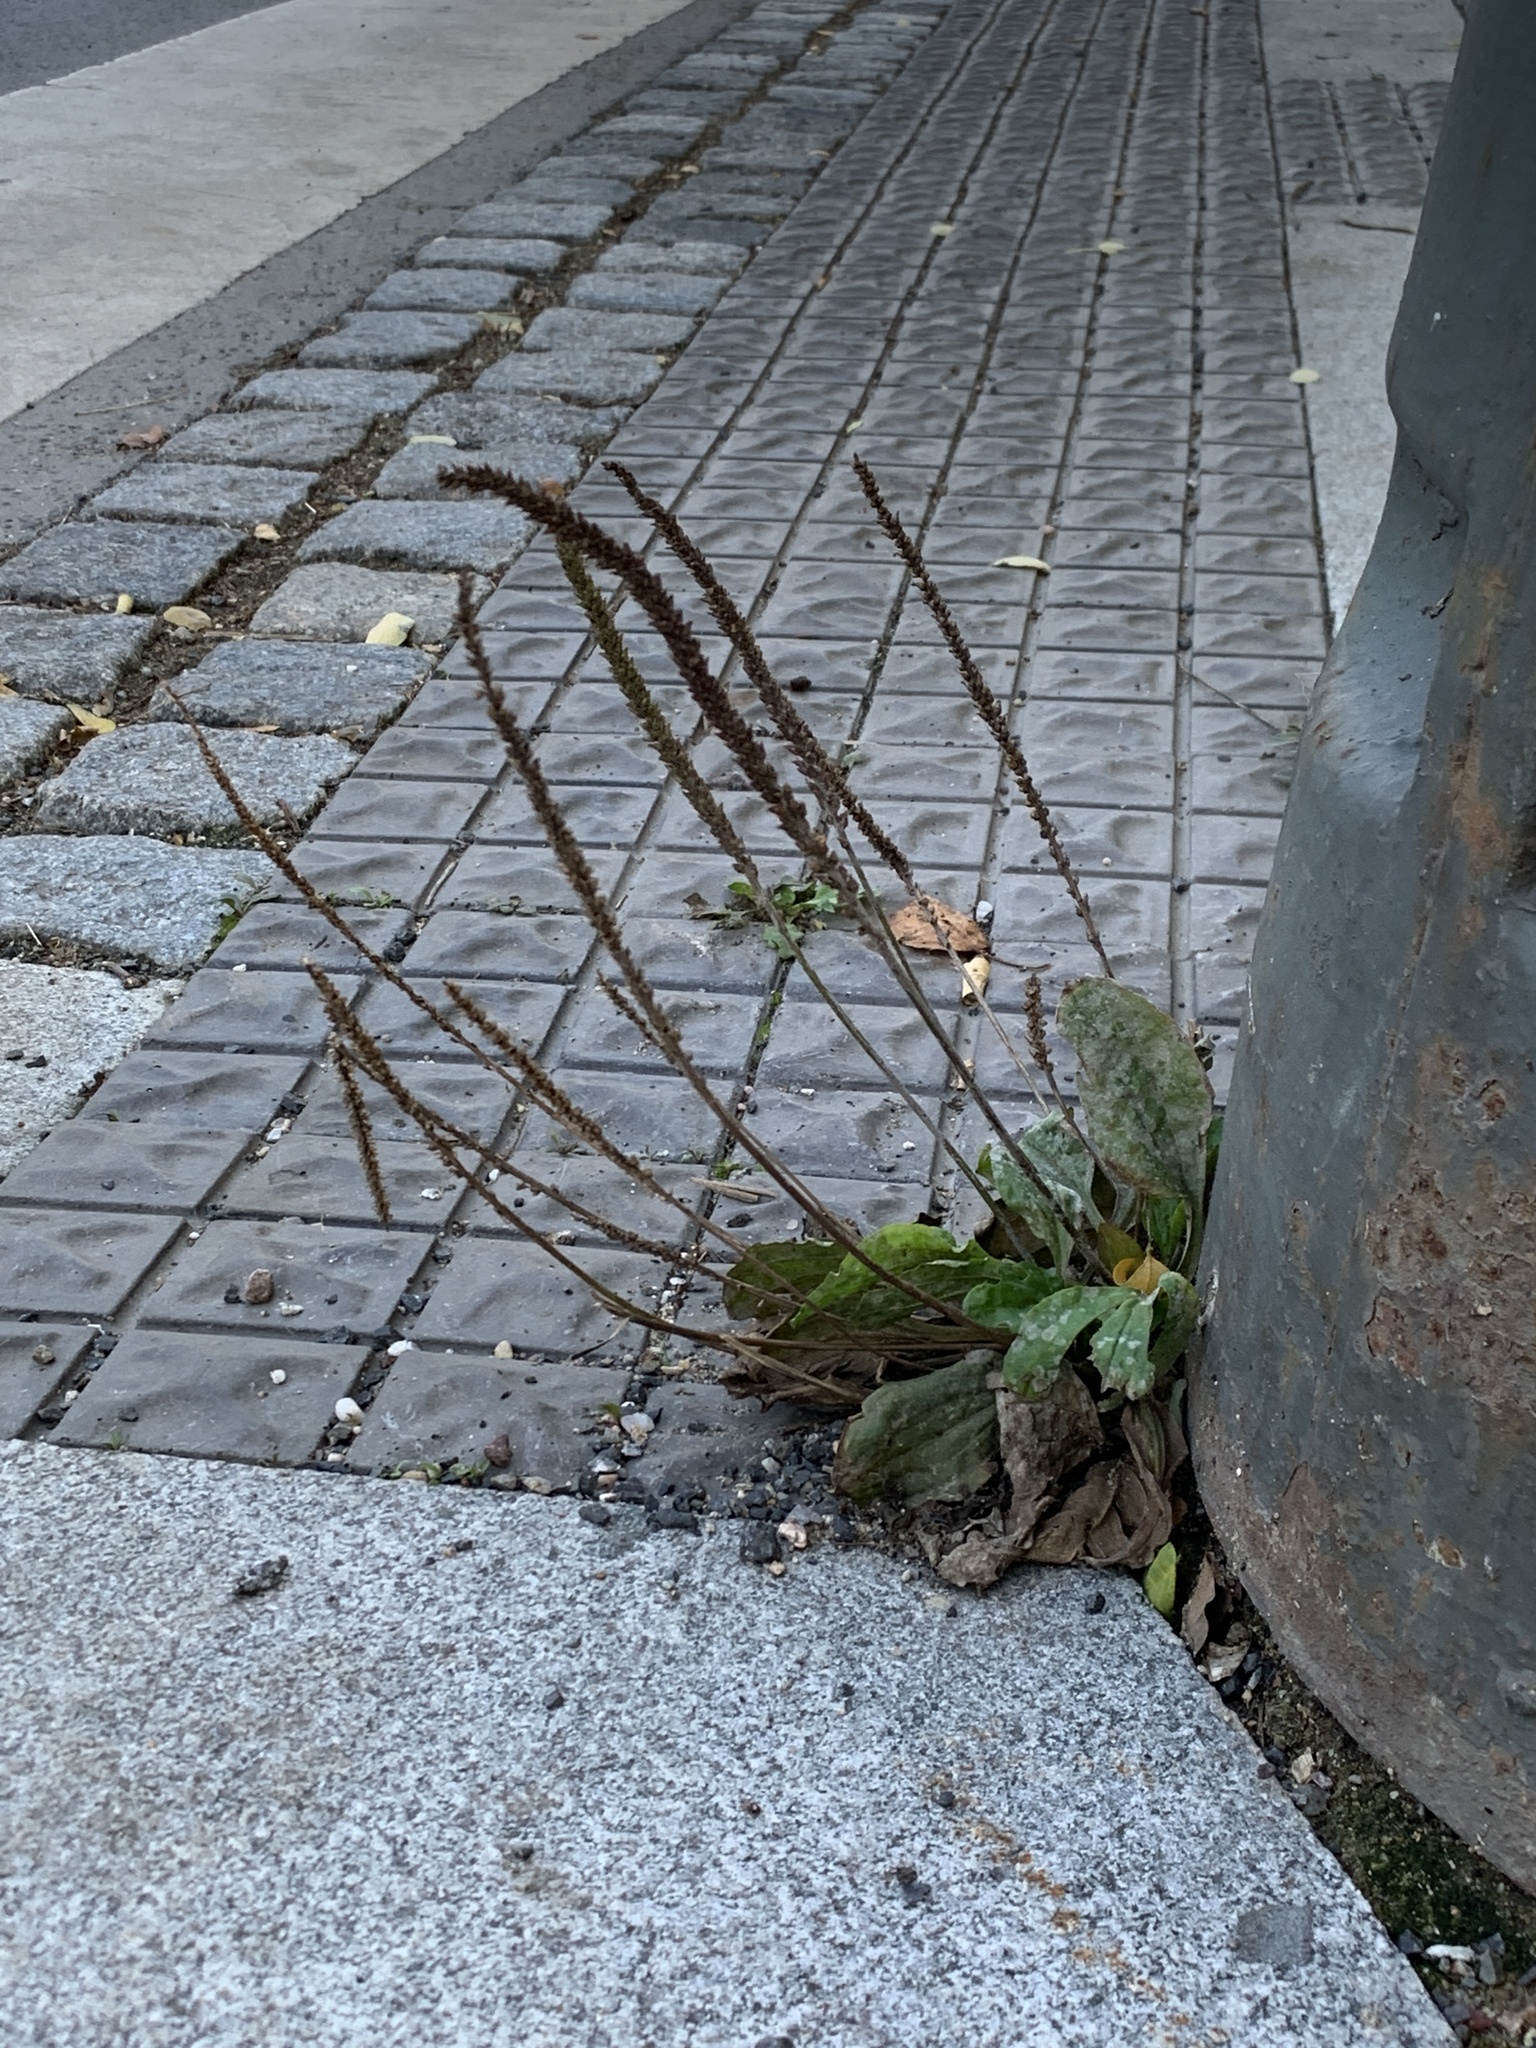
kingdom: Plantae
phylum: Tracheophyta
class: Magnoliopsida
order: Lamiales
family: Plantaginaceae
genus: Plantago
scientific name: Plantago major
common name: Common plantain
